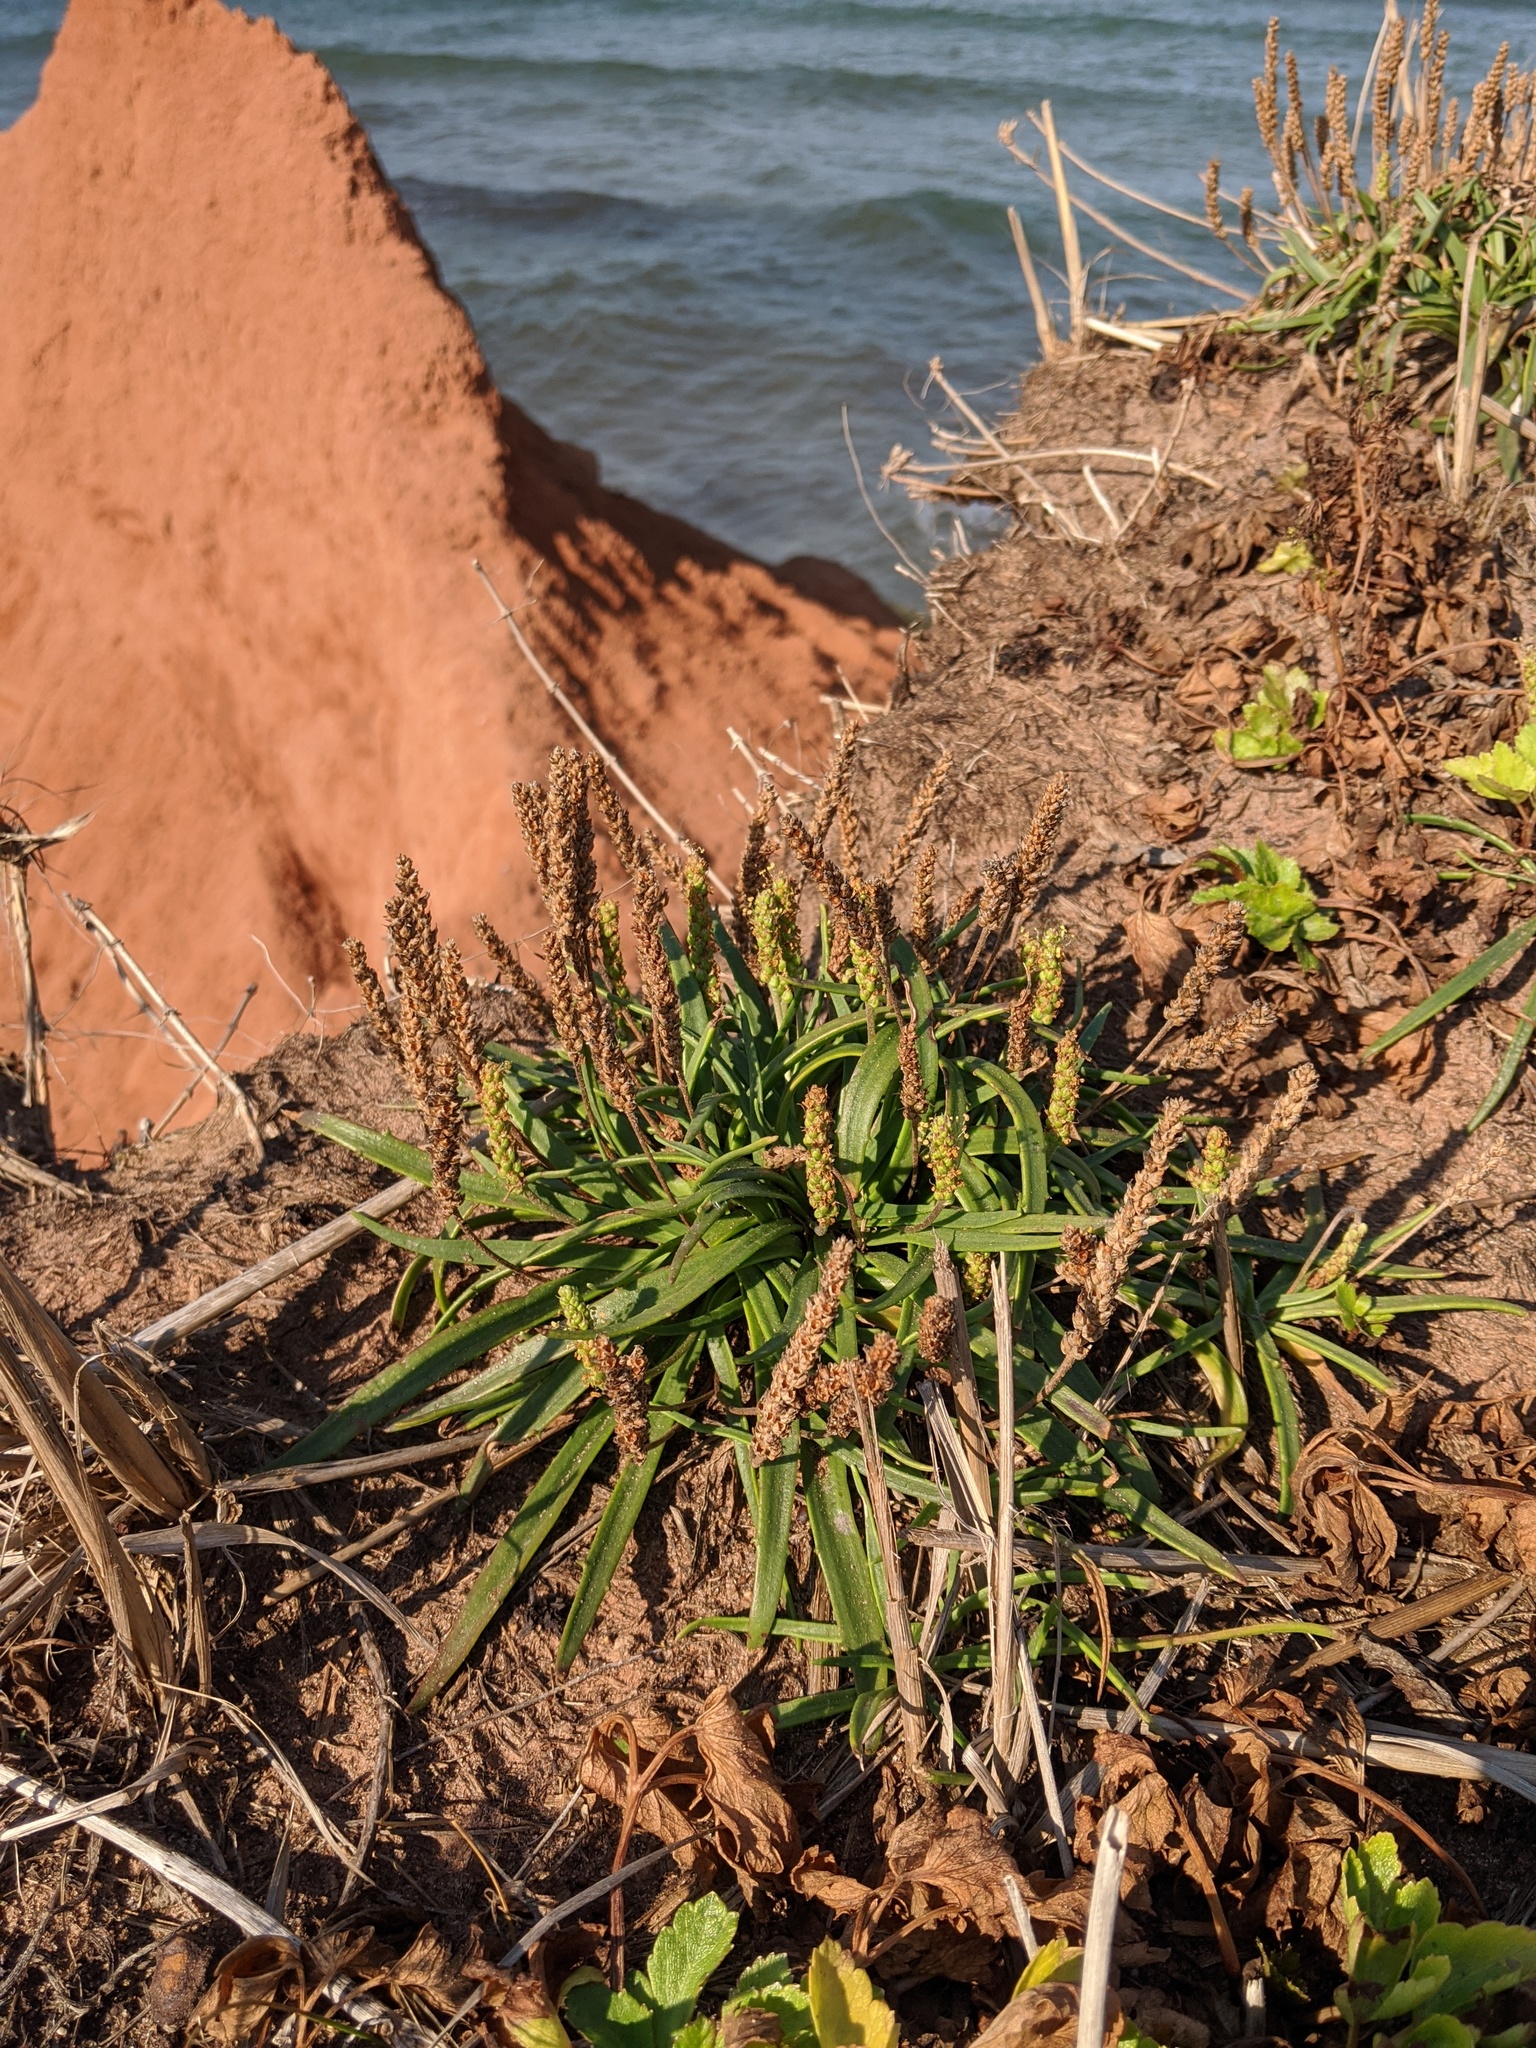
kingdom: Plantae
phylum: Tracheophyta
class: Magnoliopsida
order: Lamiales
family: Plantaginaceae
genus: Plantago
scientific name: Plantago maritima
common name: Sea plantain
